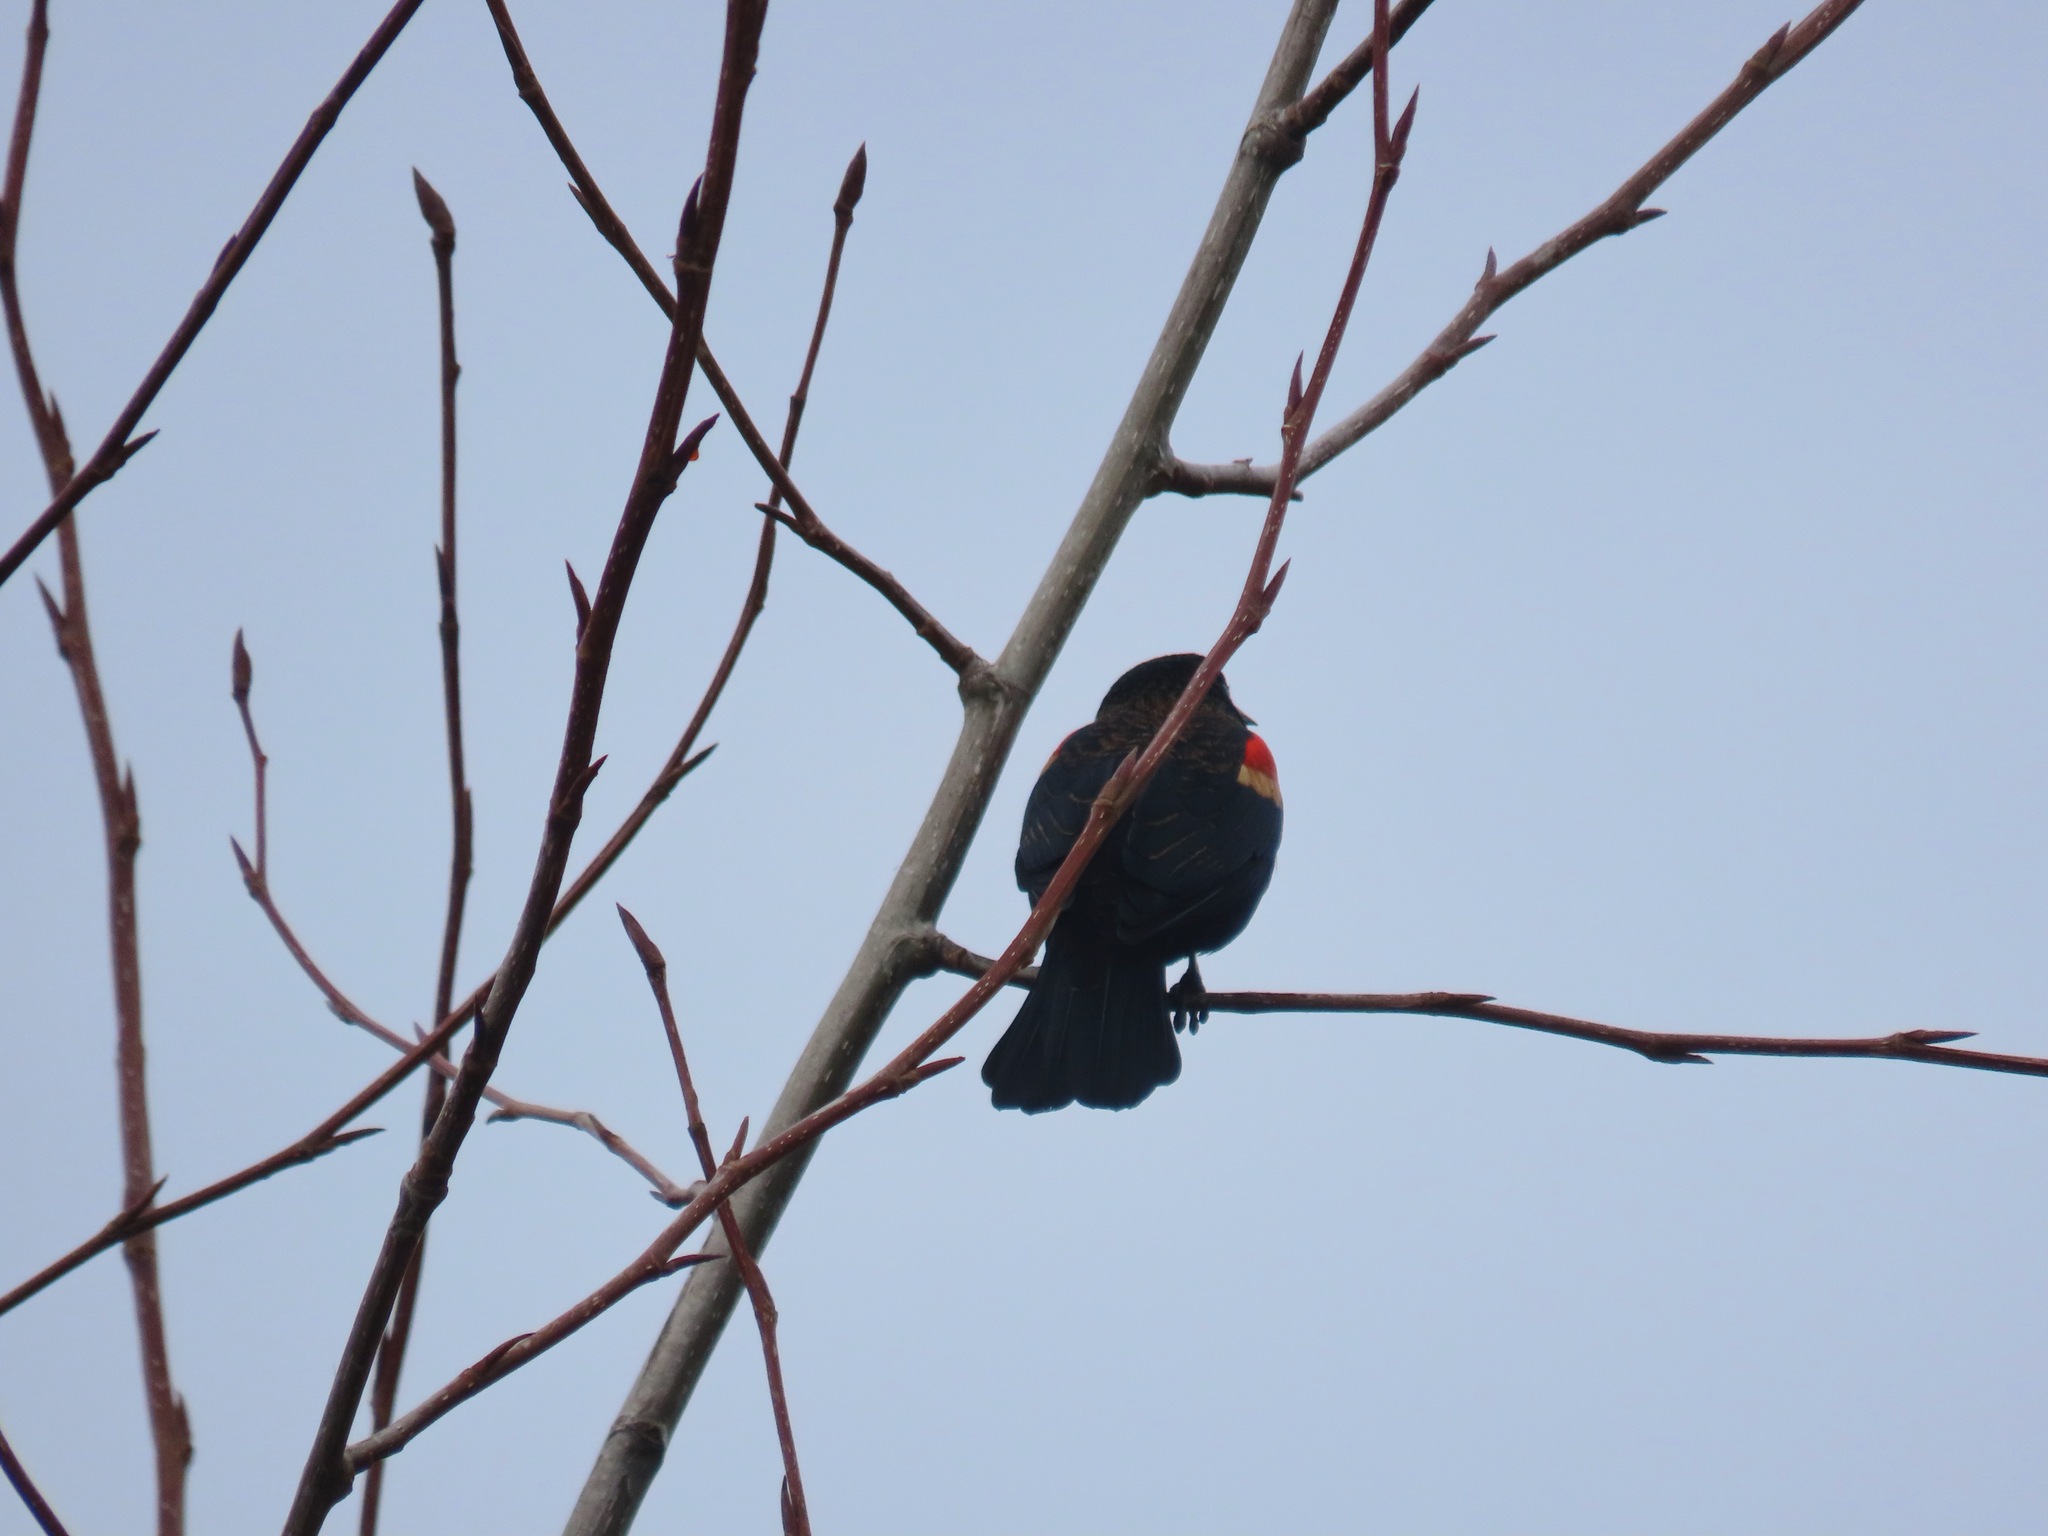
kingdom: Animalia
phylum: Chordata
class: Aves
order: Passeriformes
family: Icteridae
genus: Agelaius
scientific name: Agelaius phoeniceus
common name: Red-winged blackbird
